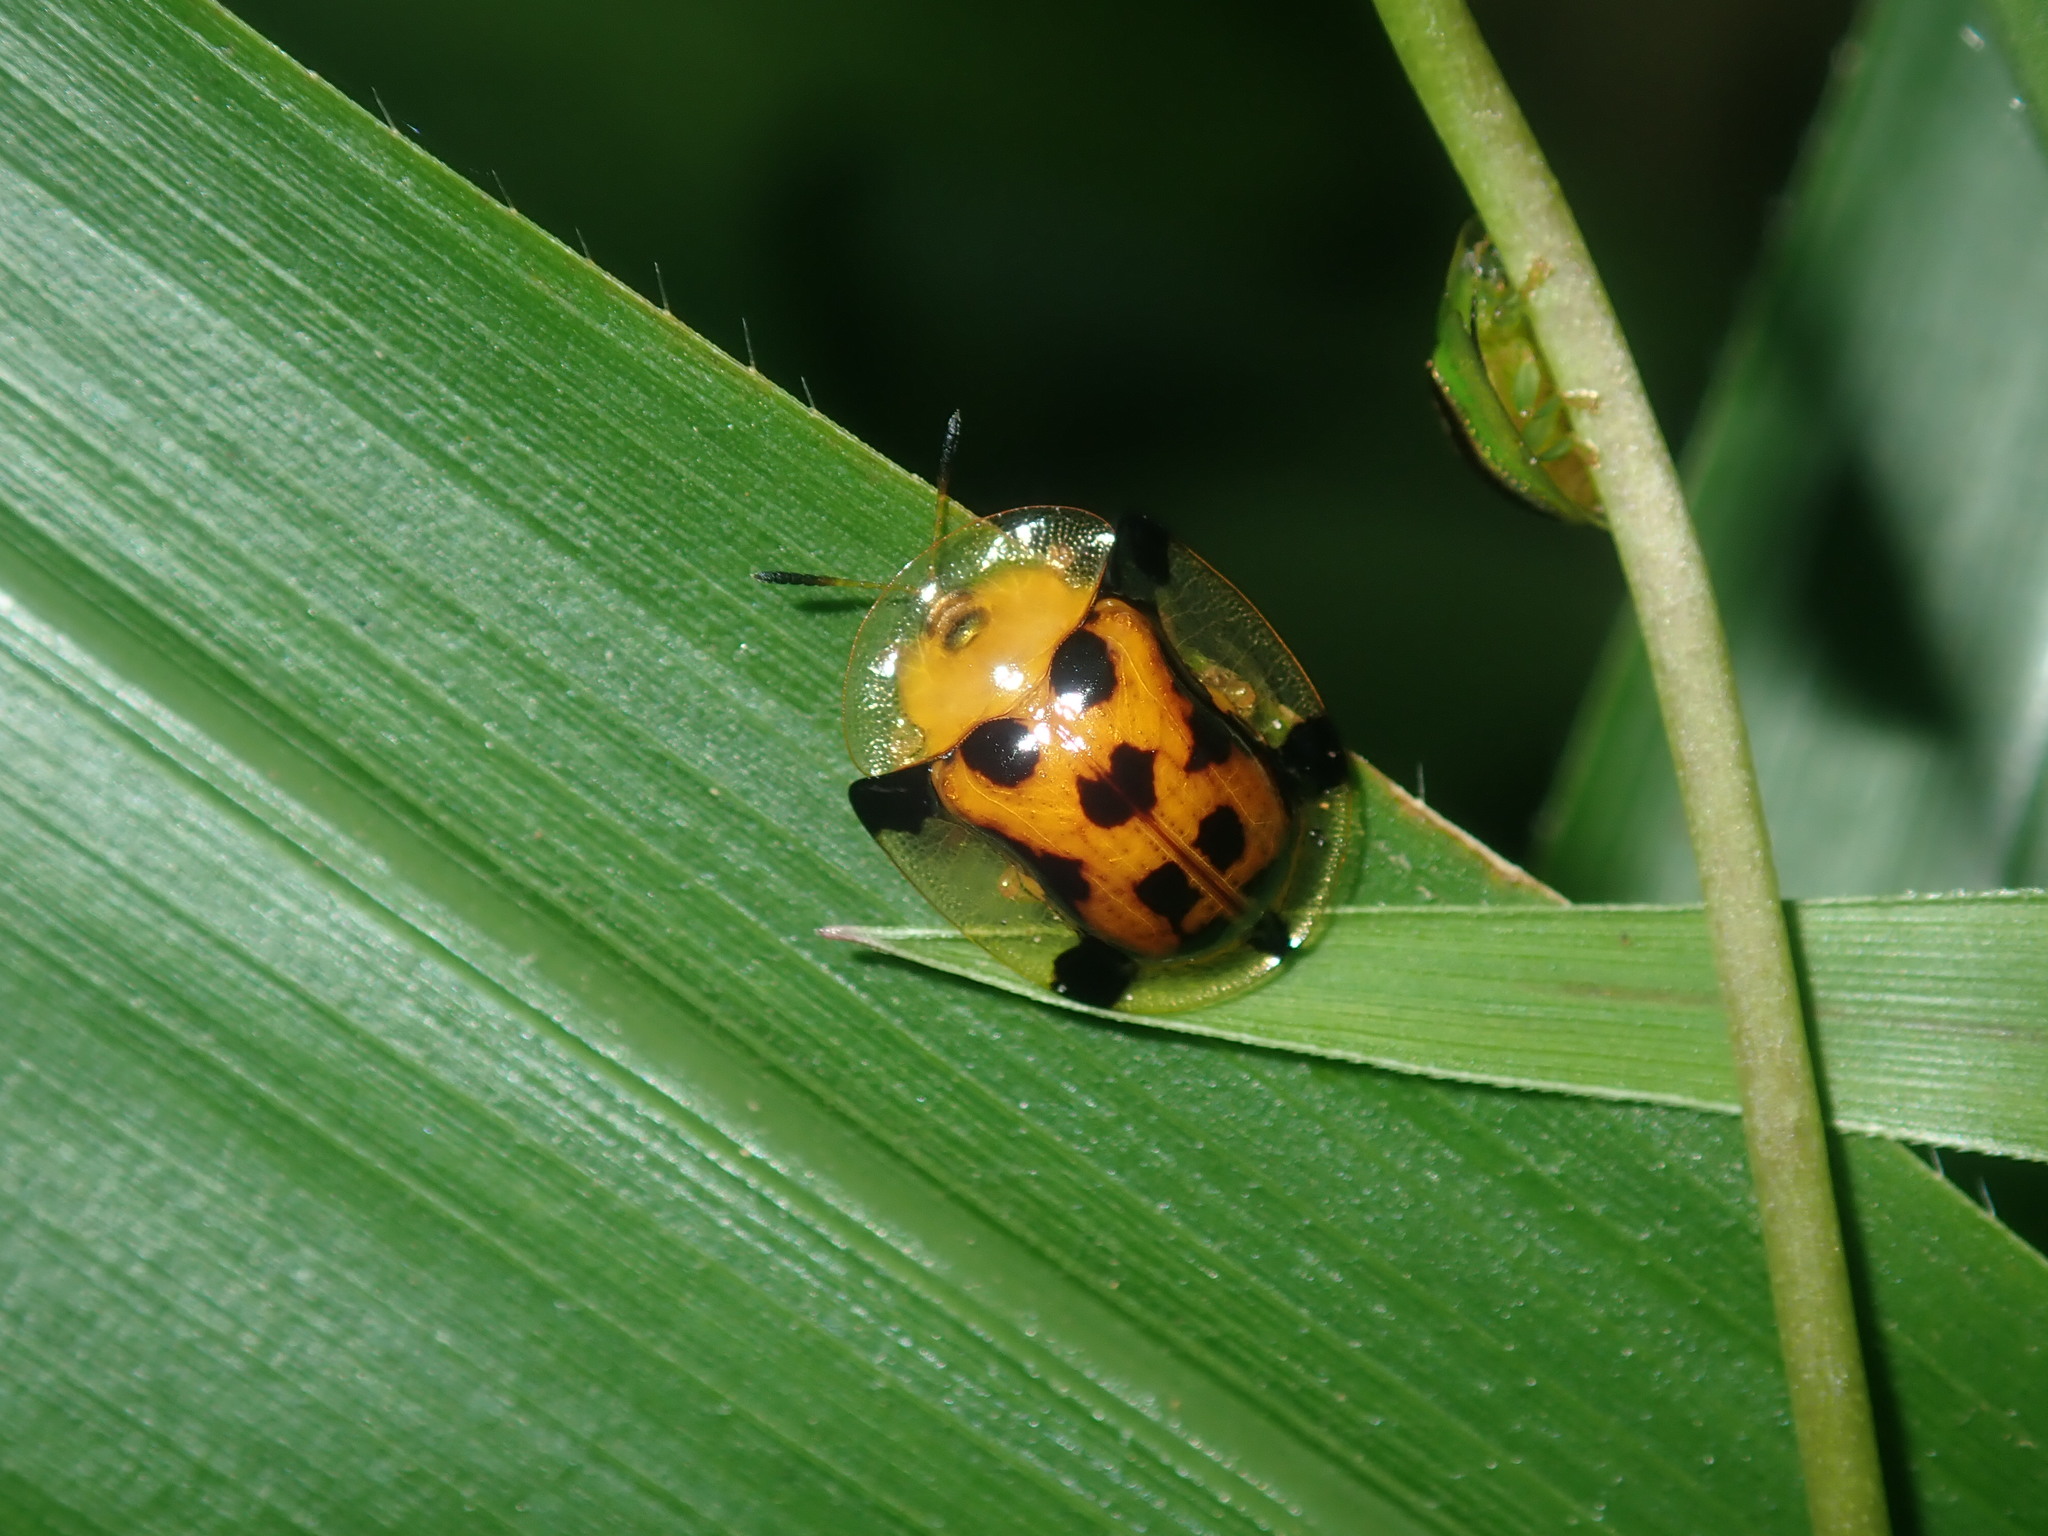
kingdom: Animalia
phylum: Arthropoda
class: Insecta
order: Coleoptera
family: Chrysomelidae
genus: Aspidimorpha
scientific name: Aspidimorpha westwoodii
